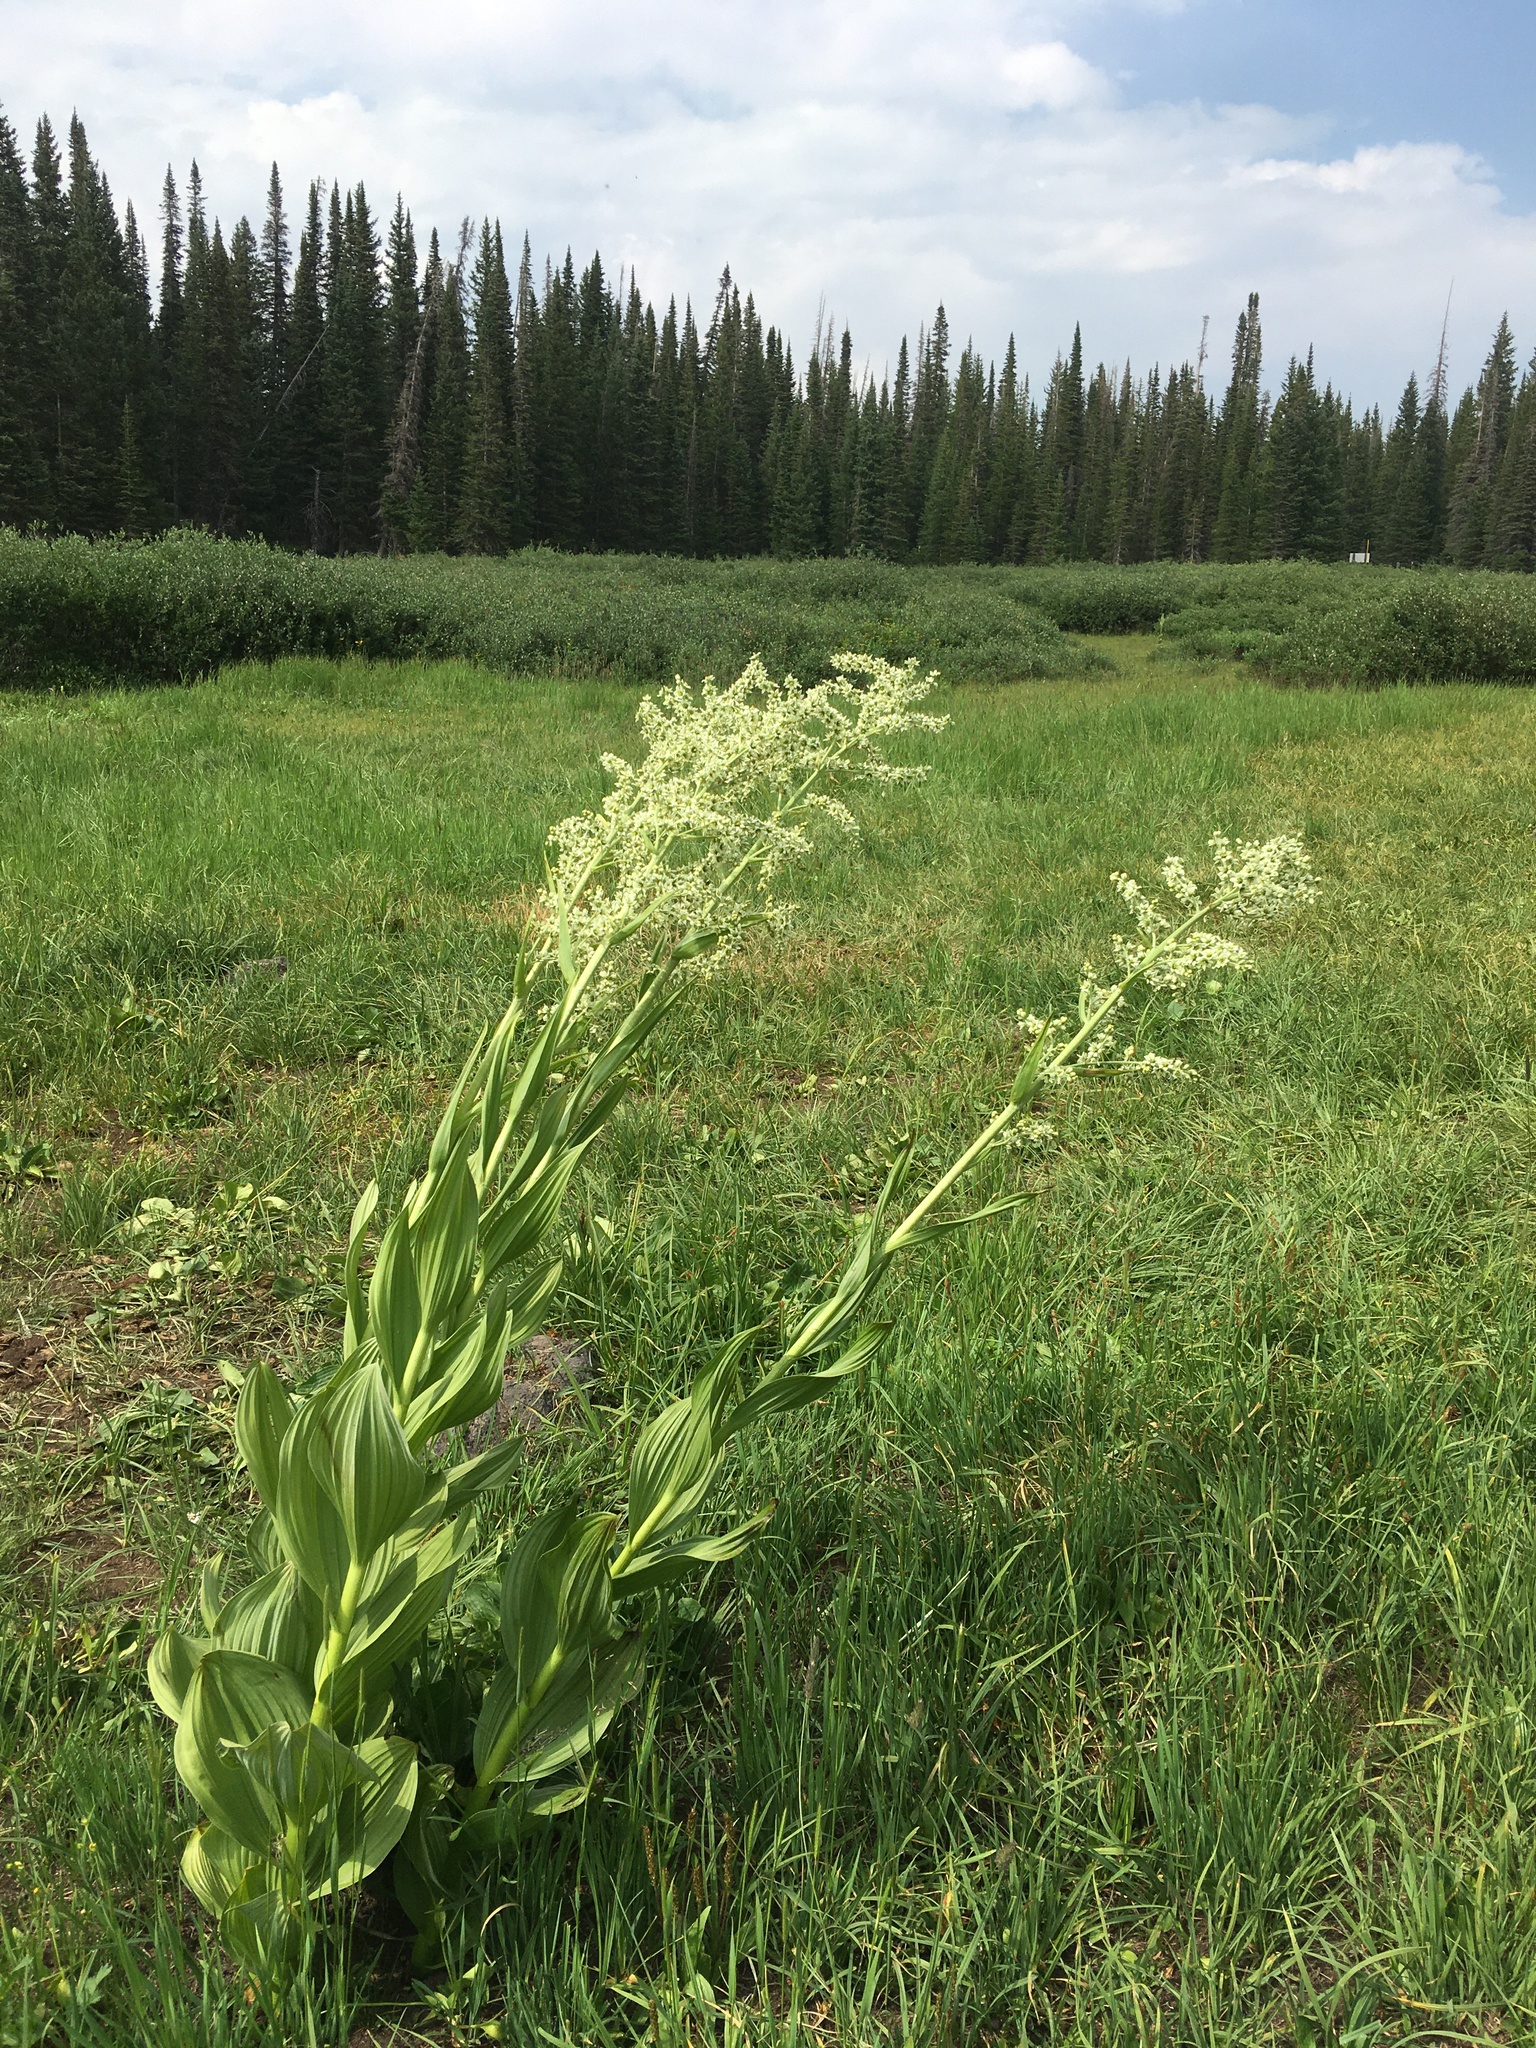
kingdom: Plantae
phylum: Tracheophyta
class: Liliopsida
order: Liliales
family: Melanthiaceae
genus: Veratrum
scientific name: Veratrum californicum
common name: California veratrum
